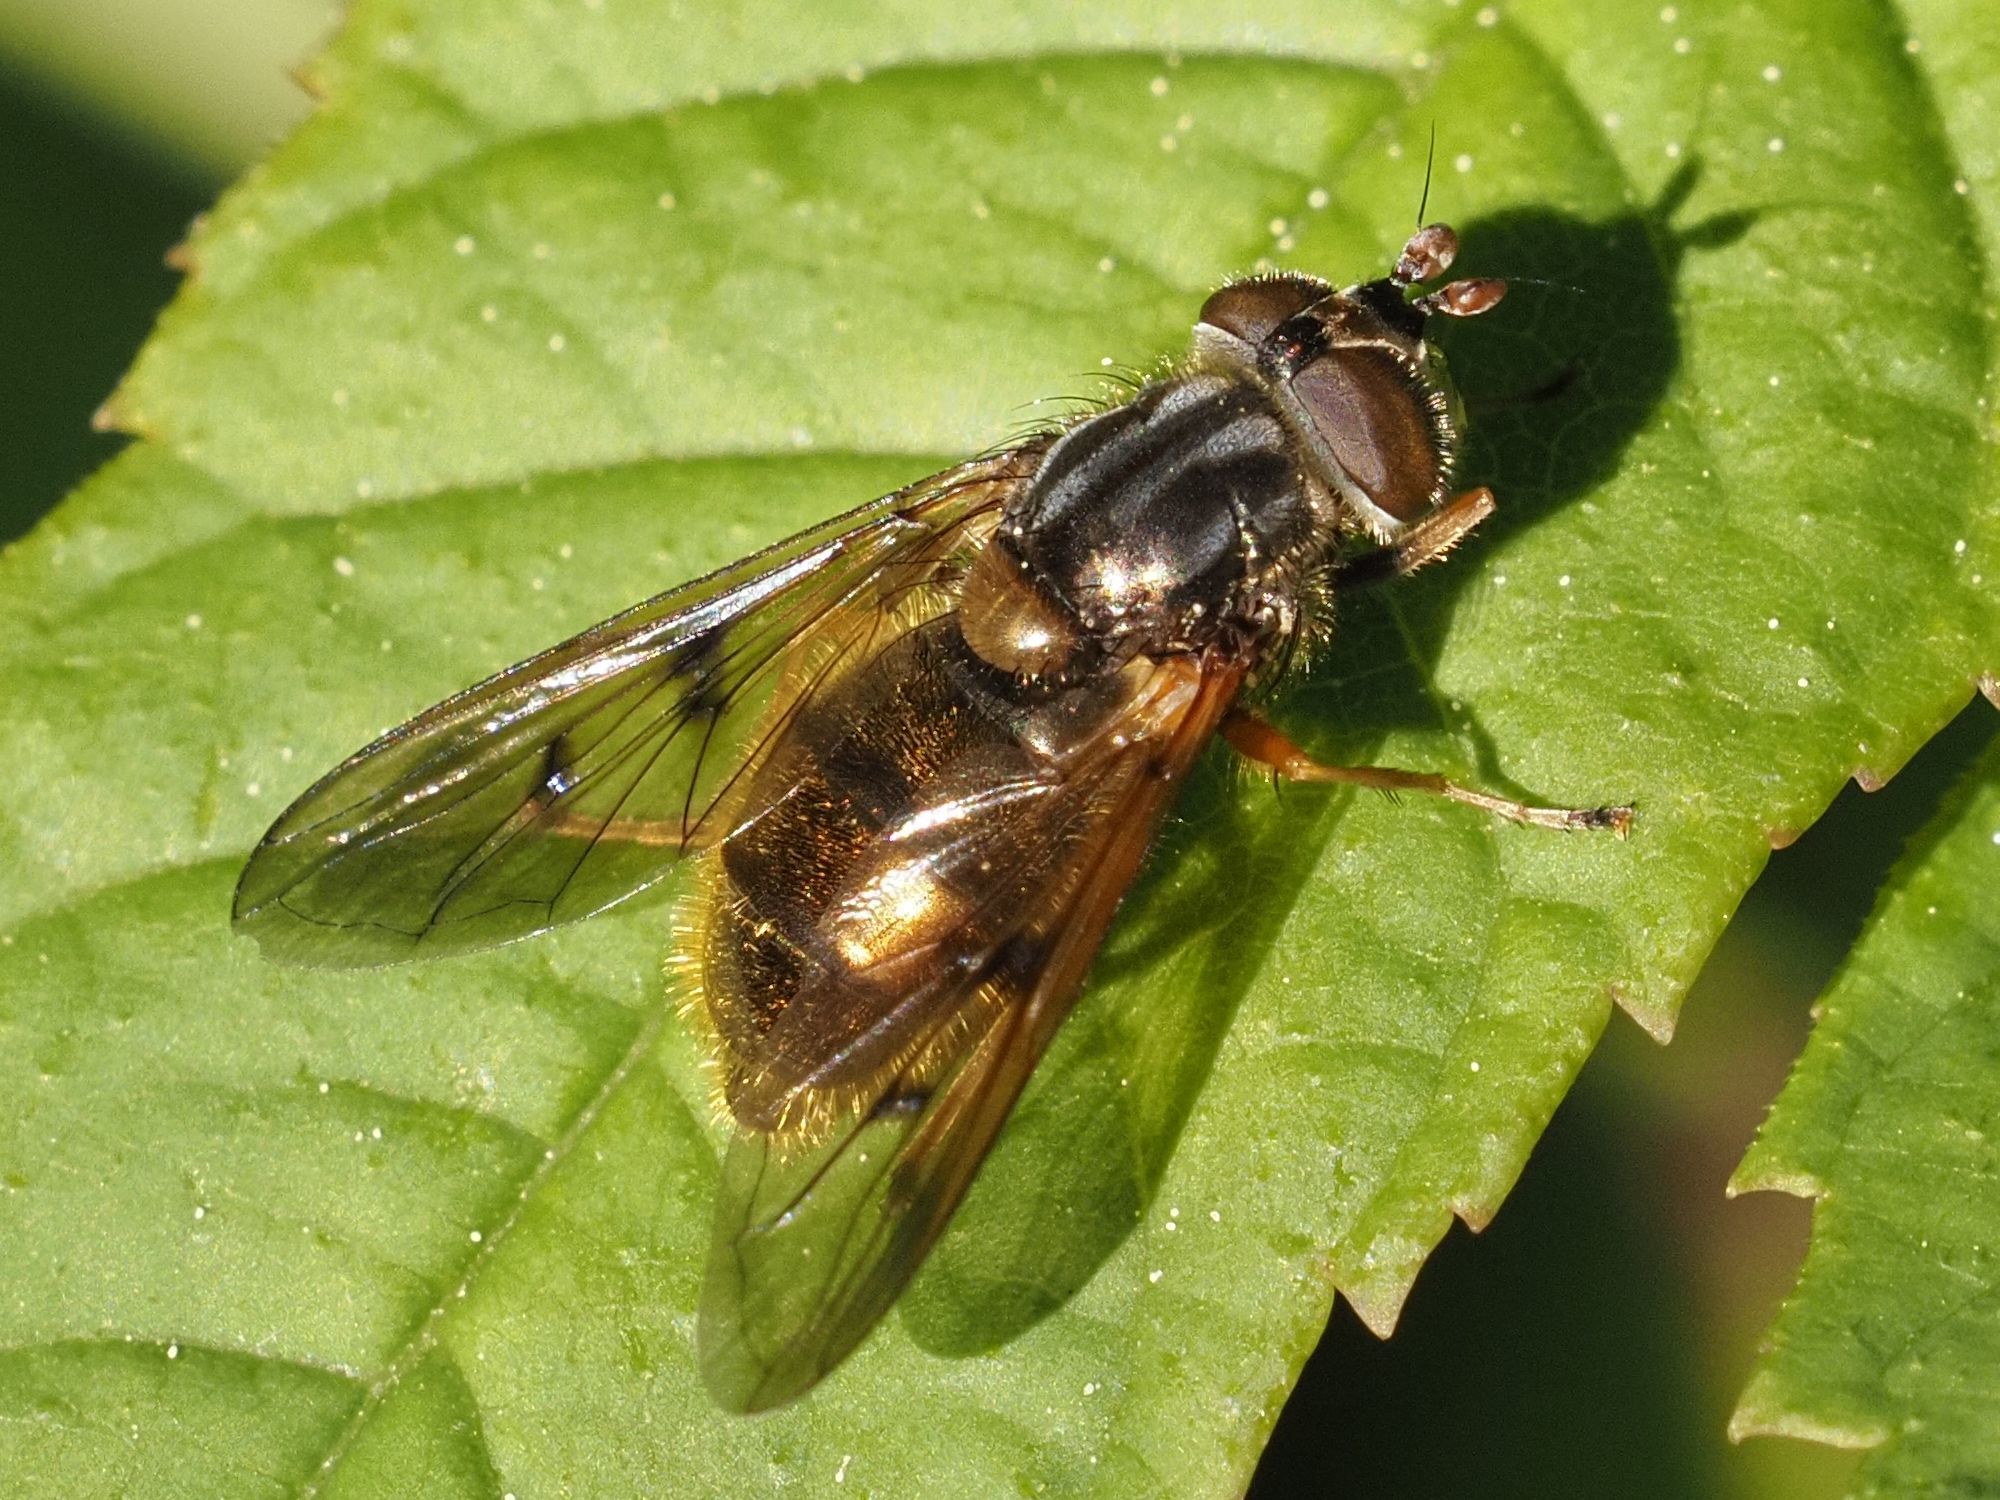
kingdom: Animalia
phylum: Arthropoda
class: Insecta
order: Diptera
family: Syrphidae
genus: Ferdinandea
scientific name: Ferdinandea cuprea
